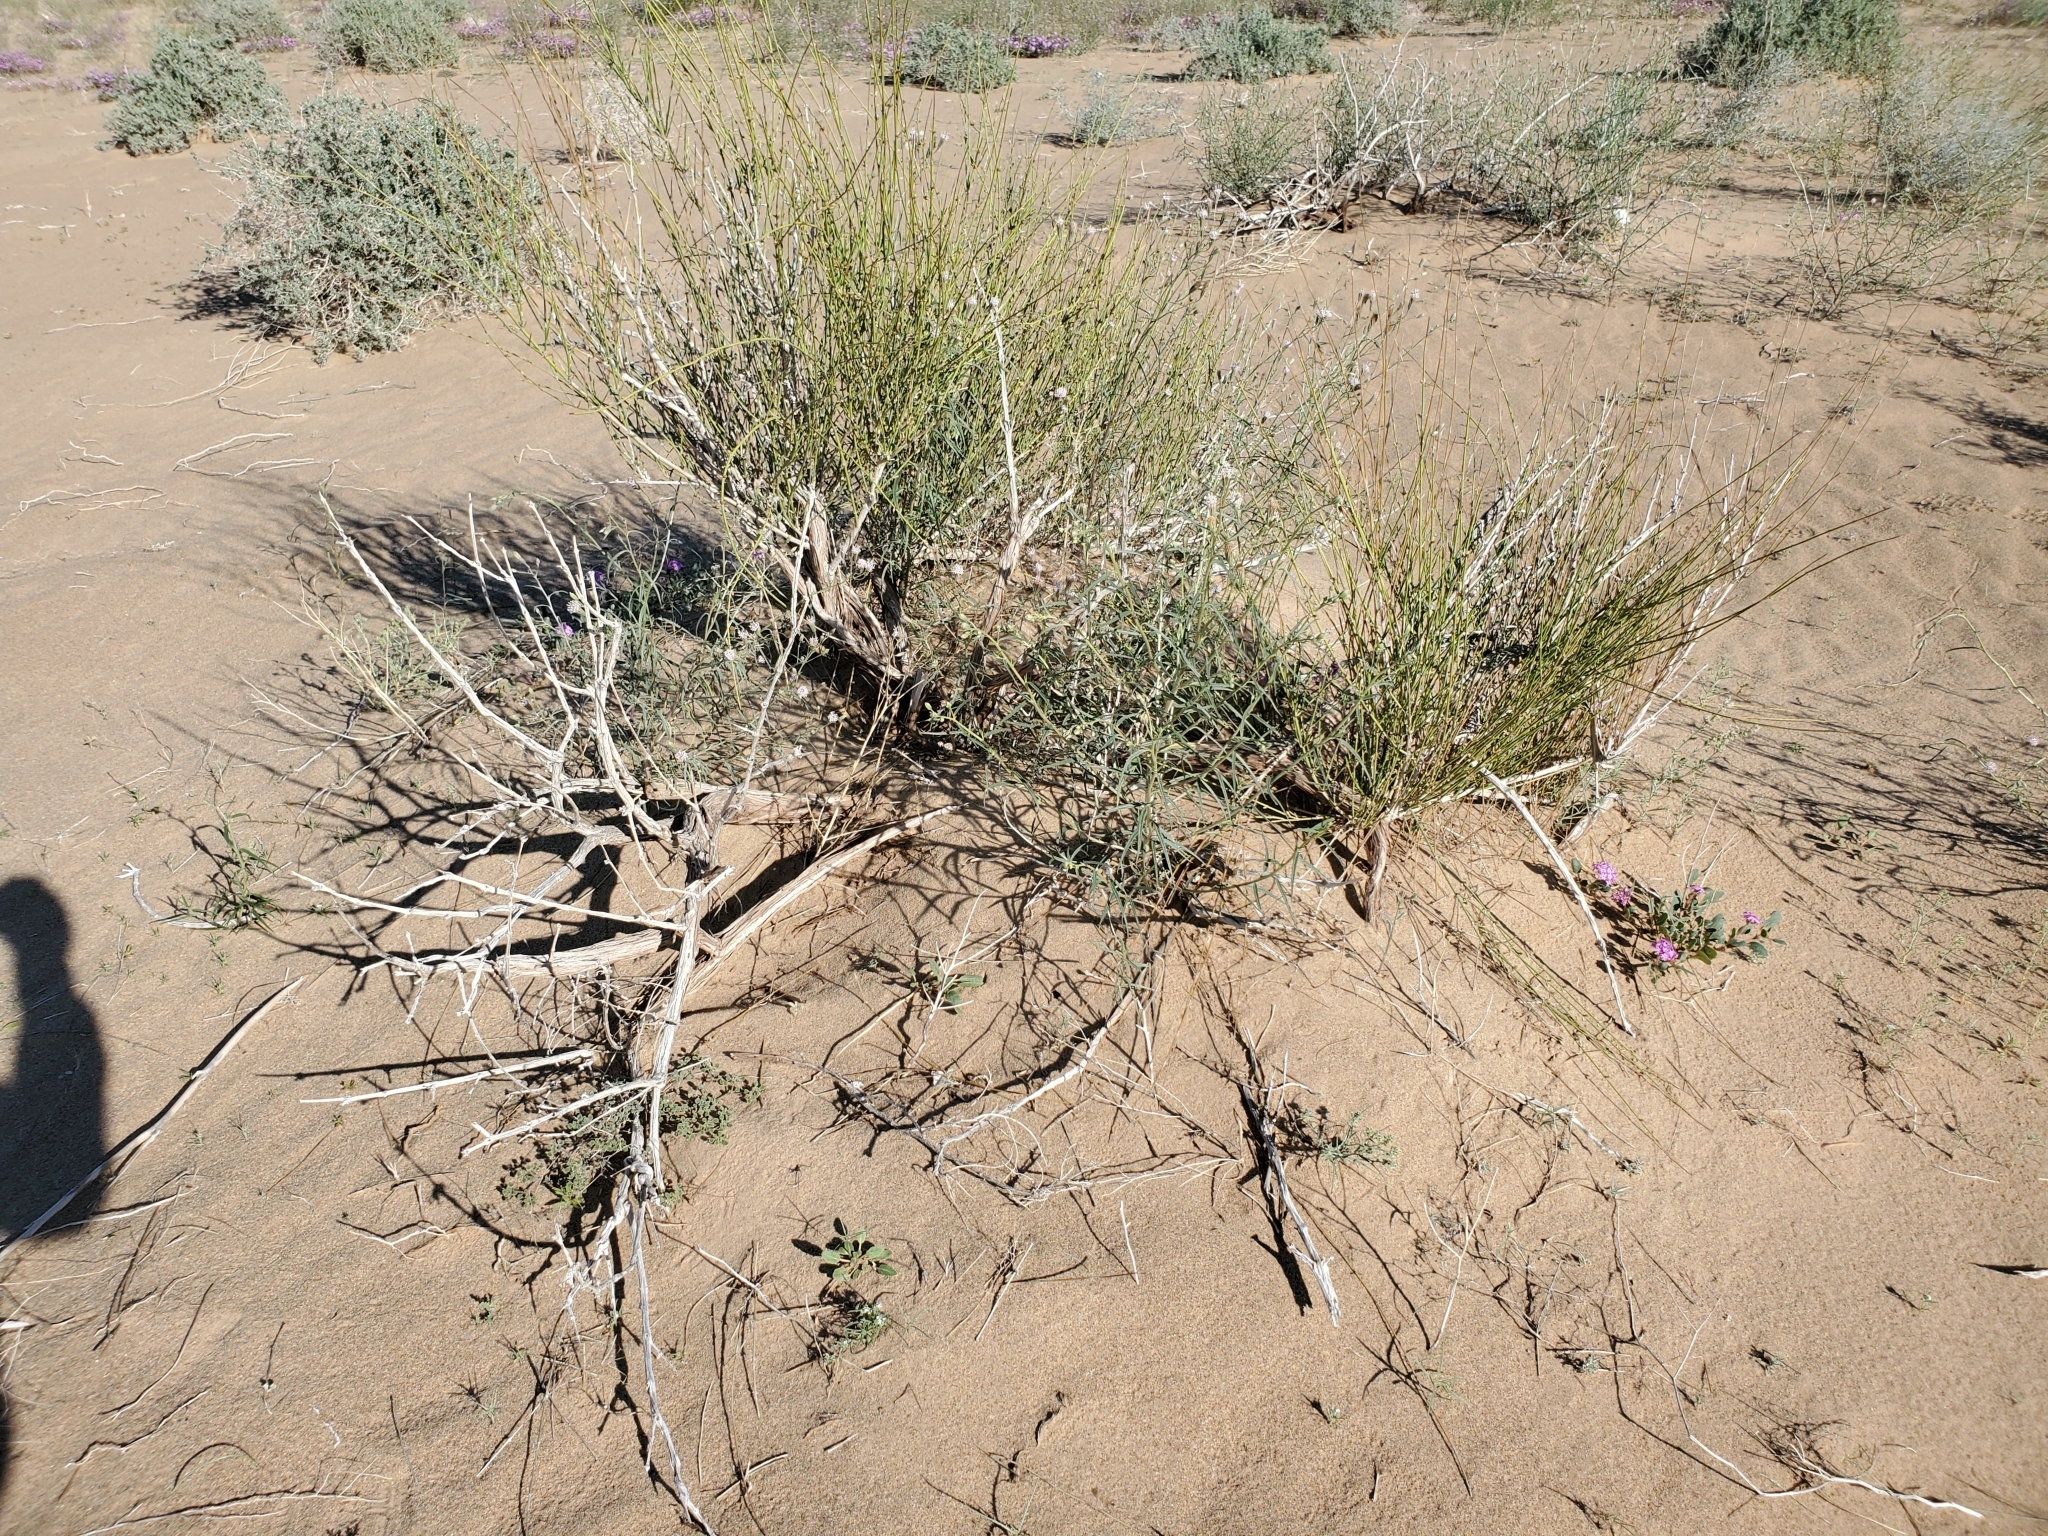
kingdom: Plantae
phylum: Tracheophyta
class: Gnetopsida
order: Ephedrales
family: Ephedraceae
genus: Ephedra
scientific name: Ephedra trifurca
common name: Mexican-tea
